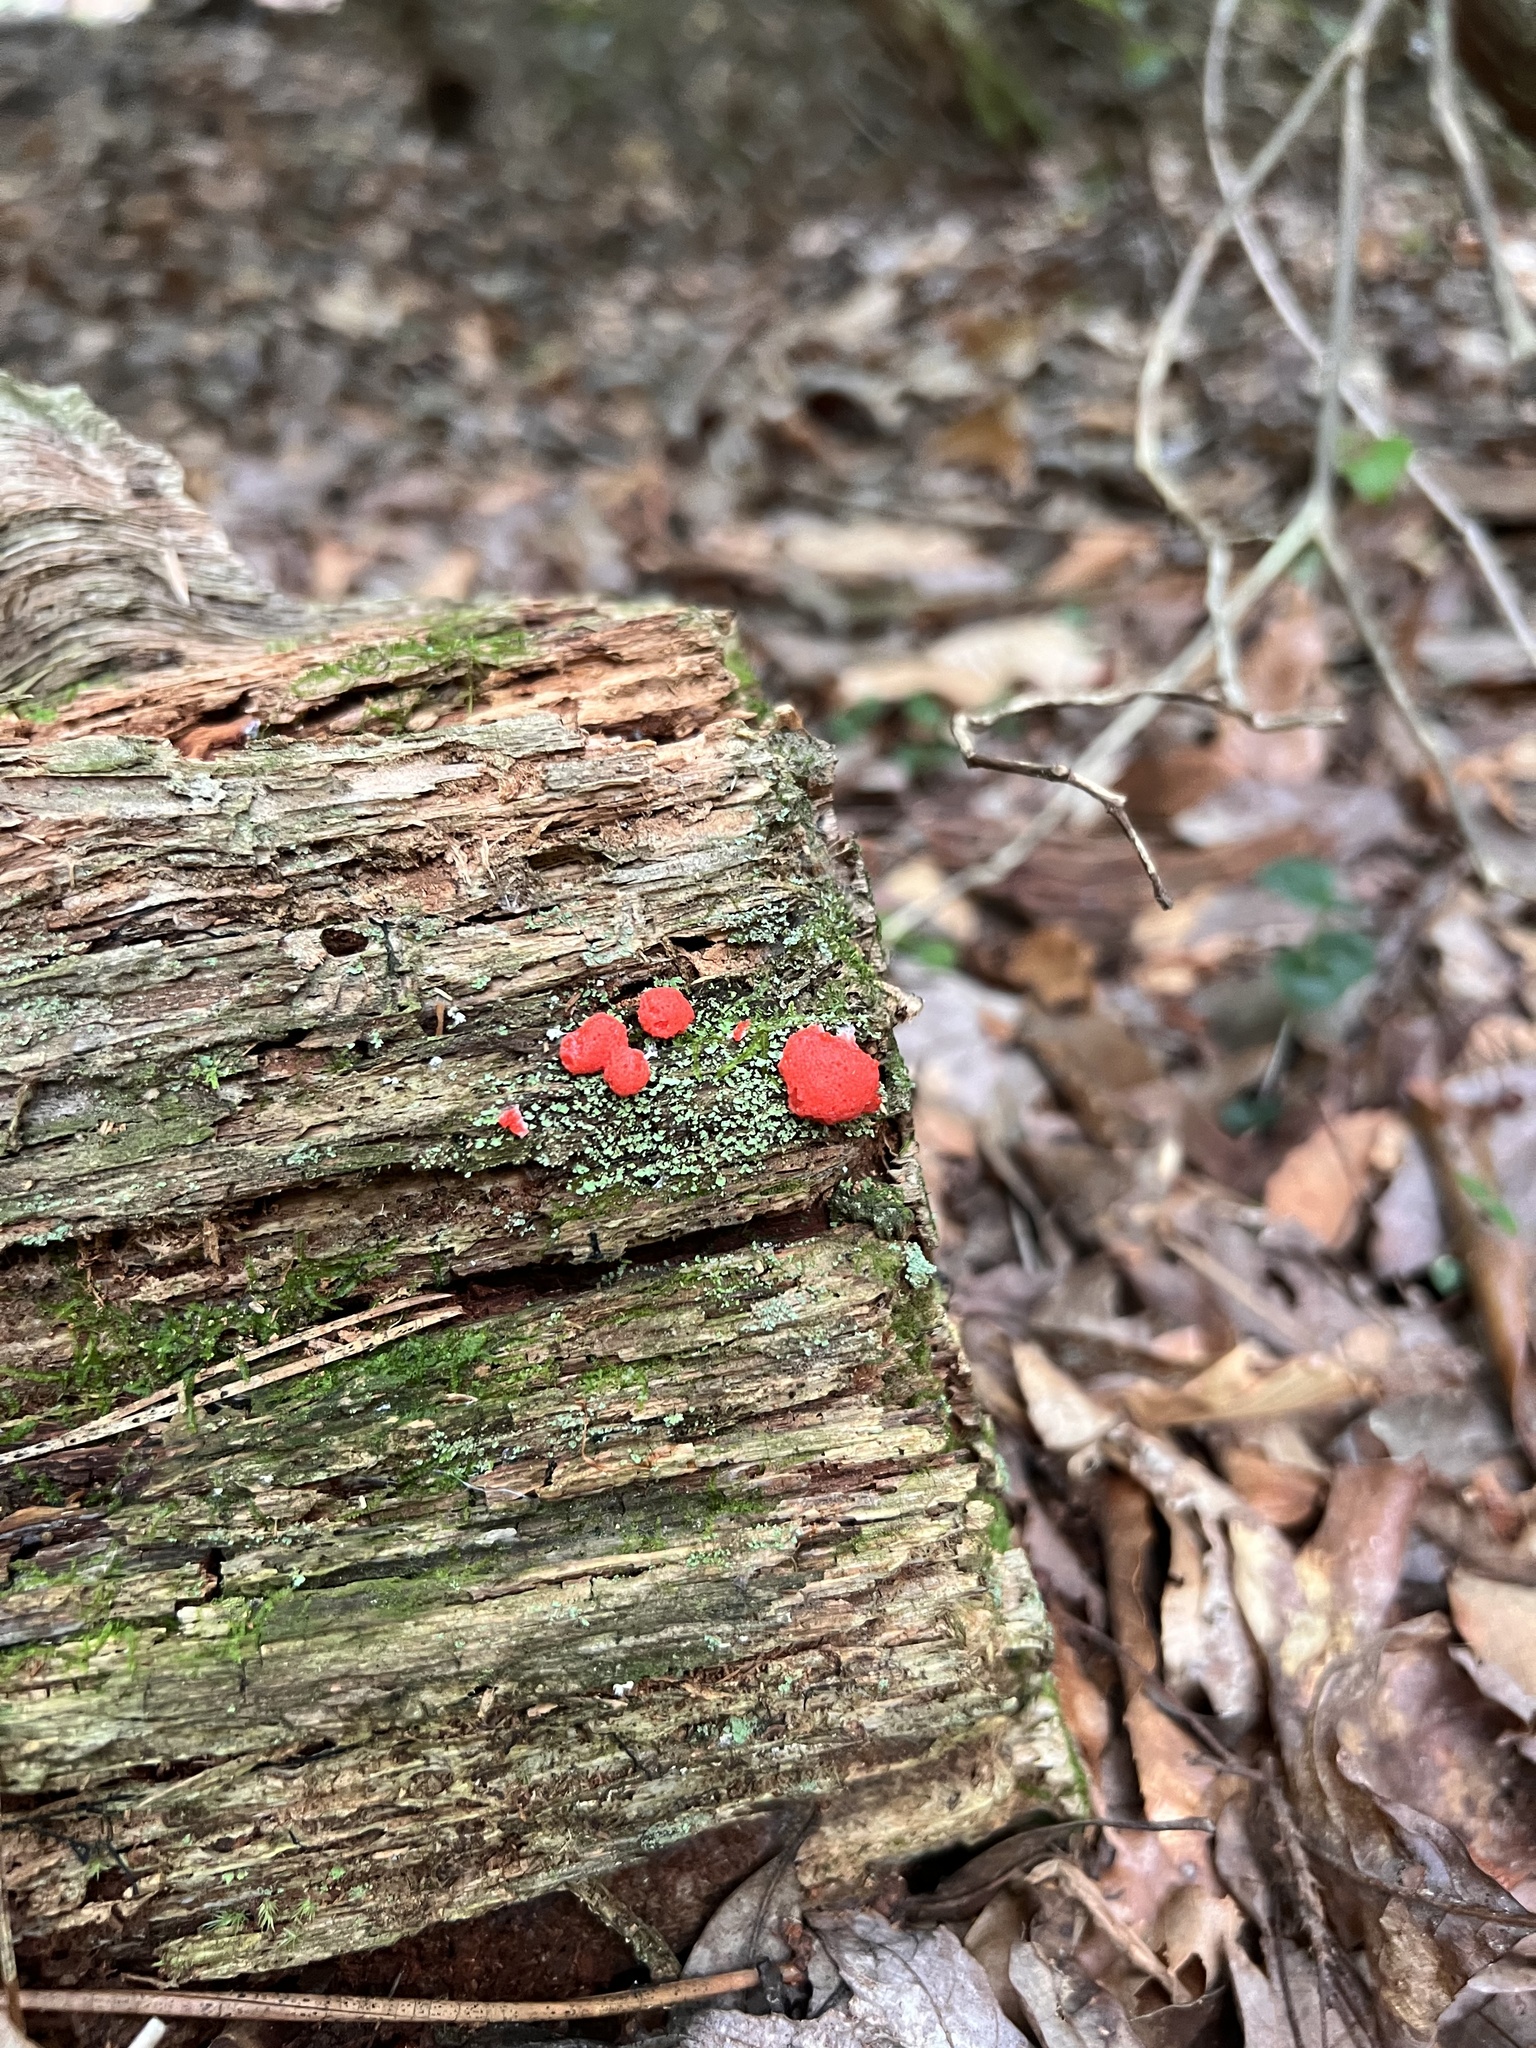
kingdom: Protozoa
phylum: Mycetozoa
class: Myxomycetes
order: Cribrariales
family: Tubiferaceae
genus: Tubifera
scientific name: Tubifera ferruginosa
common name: Red raspberry slime mold
